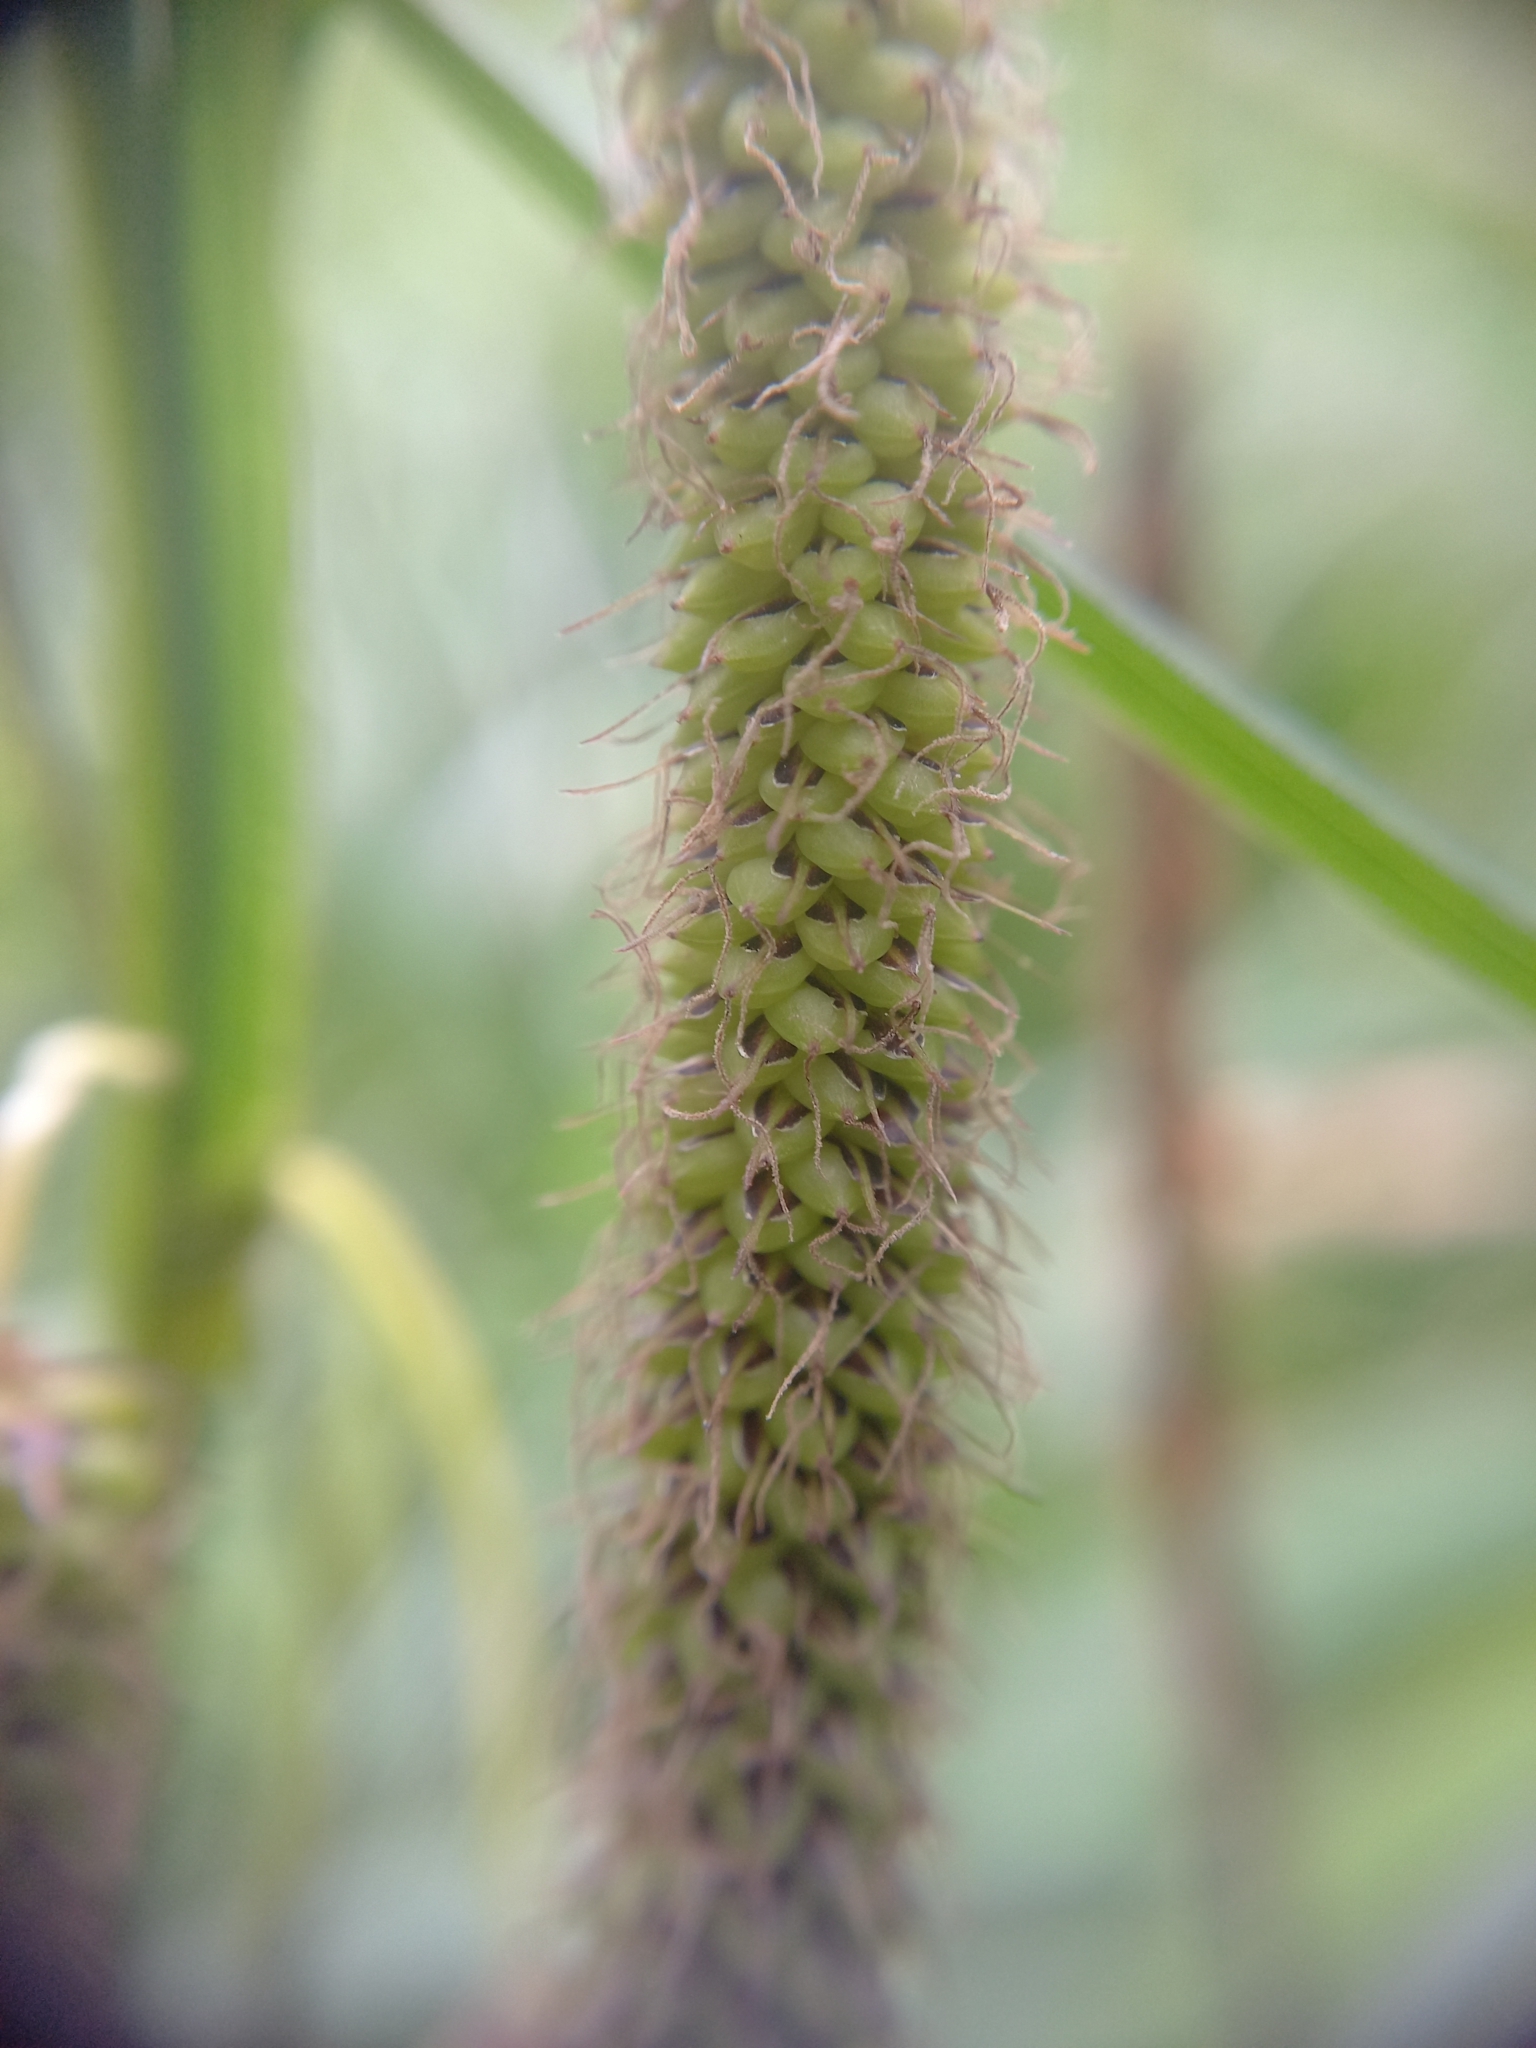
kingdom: Plantae
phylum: Tracheophyta
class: Liliopsida
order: Poales
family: Cyperaceae
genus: Carex
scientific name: Carex geminata
